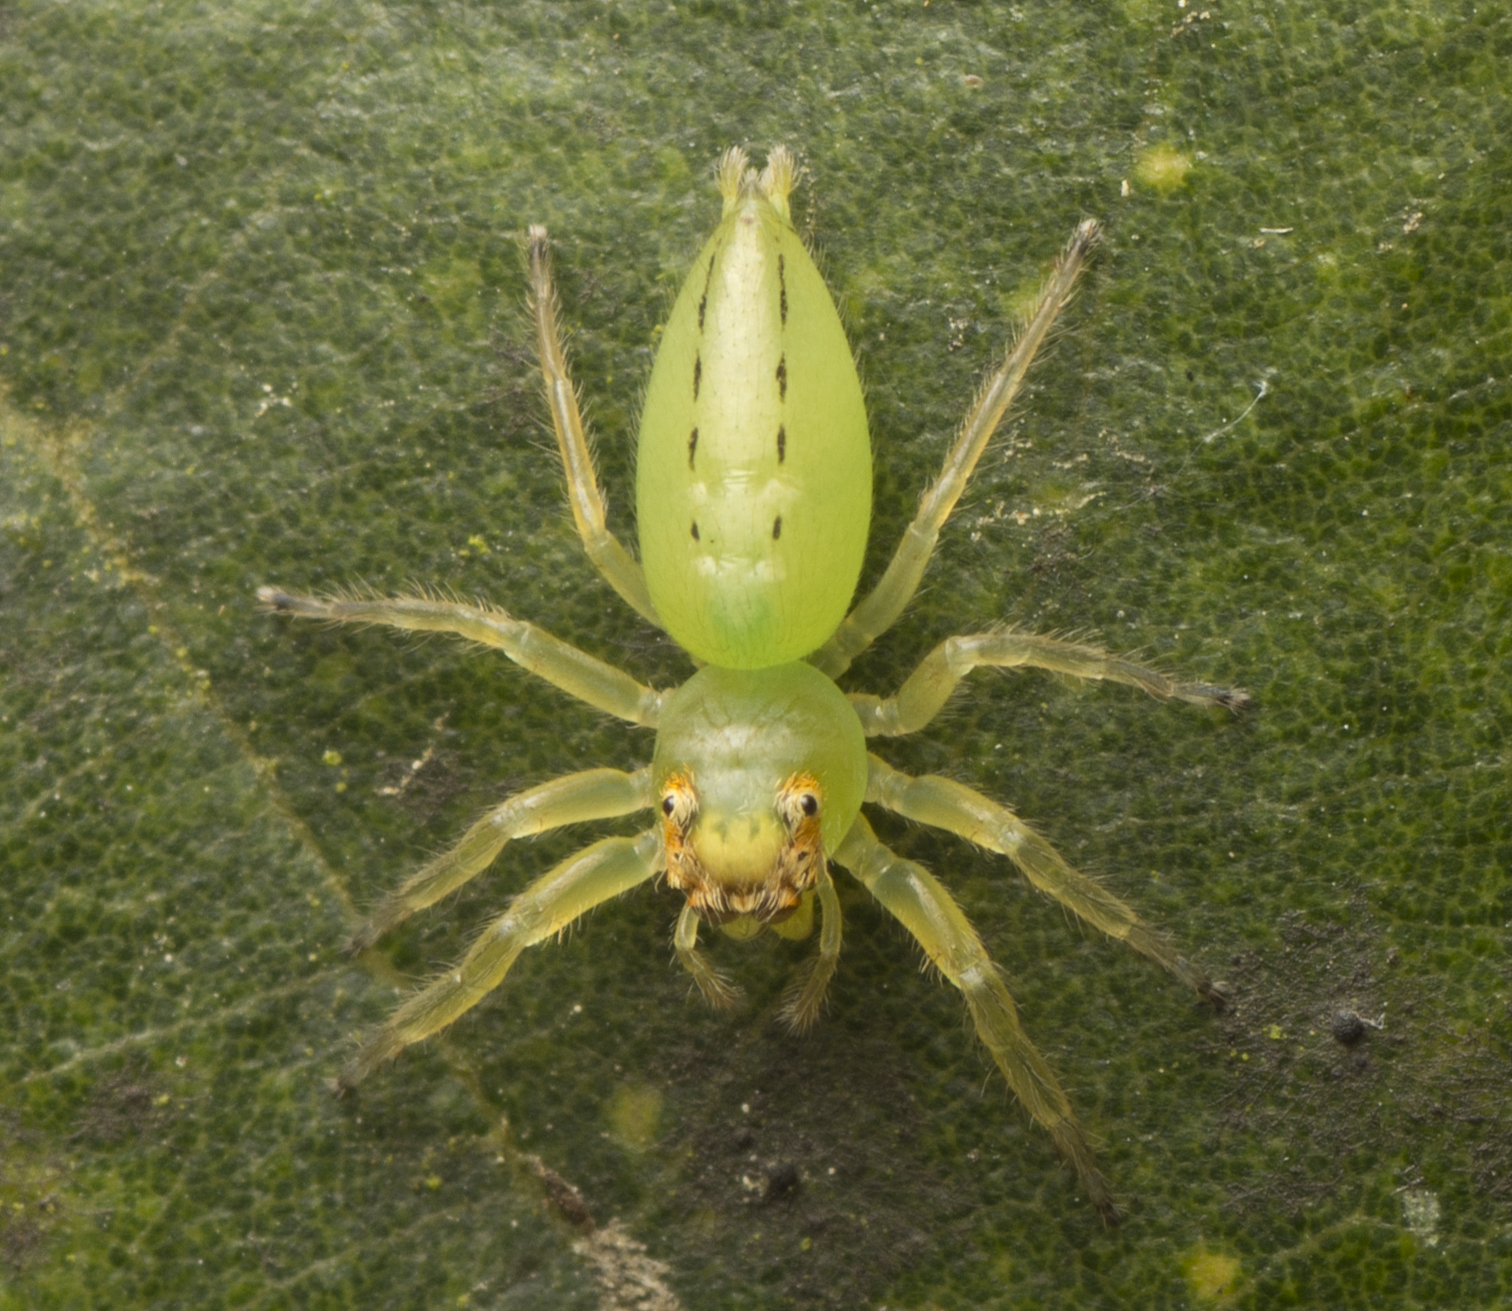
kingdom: Animalia
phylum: Arthropoda
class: Arachnida
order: Araneae
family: Salticidae
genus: Mopsus
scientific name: Mopsus mormon
